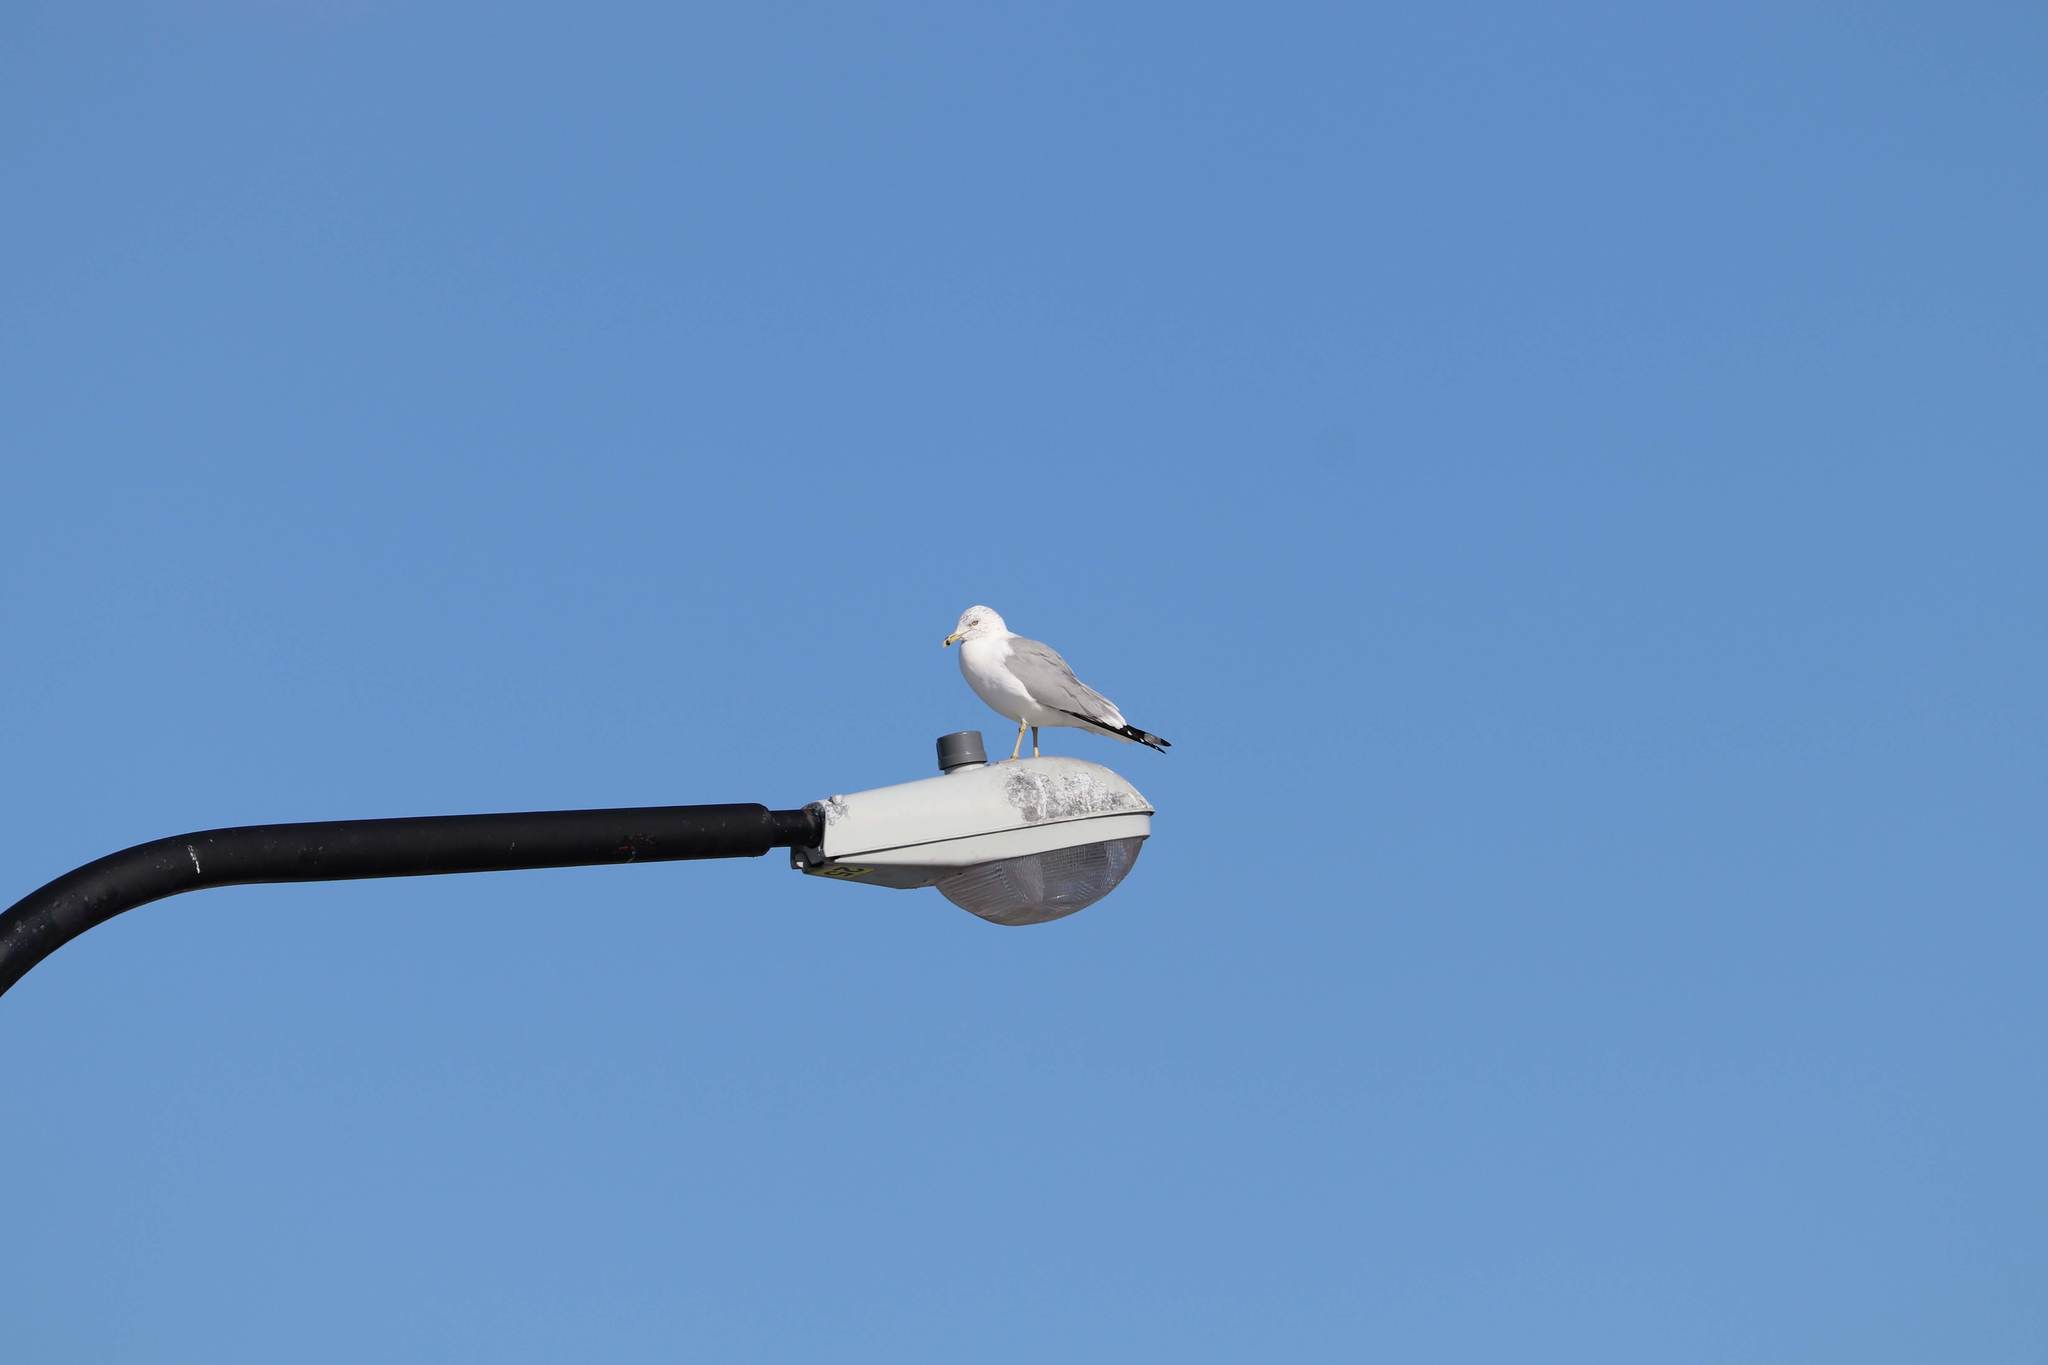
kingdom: Animalia
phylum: Chordata
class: Aves
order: Charadriiformes
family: Laridae
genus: Larus
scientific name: Larus delawarensis
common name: Ring-billed gull
